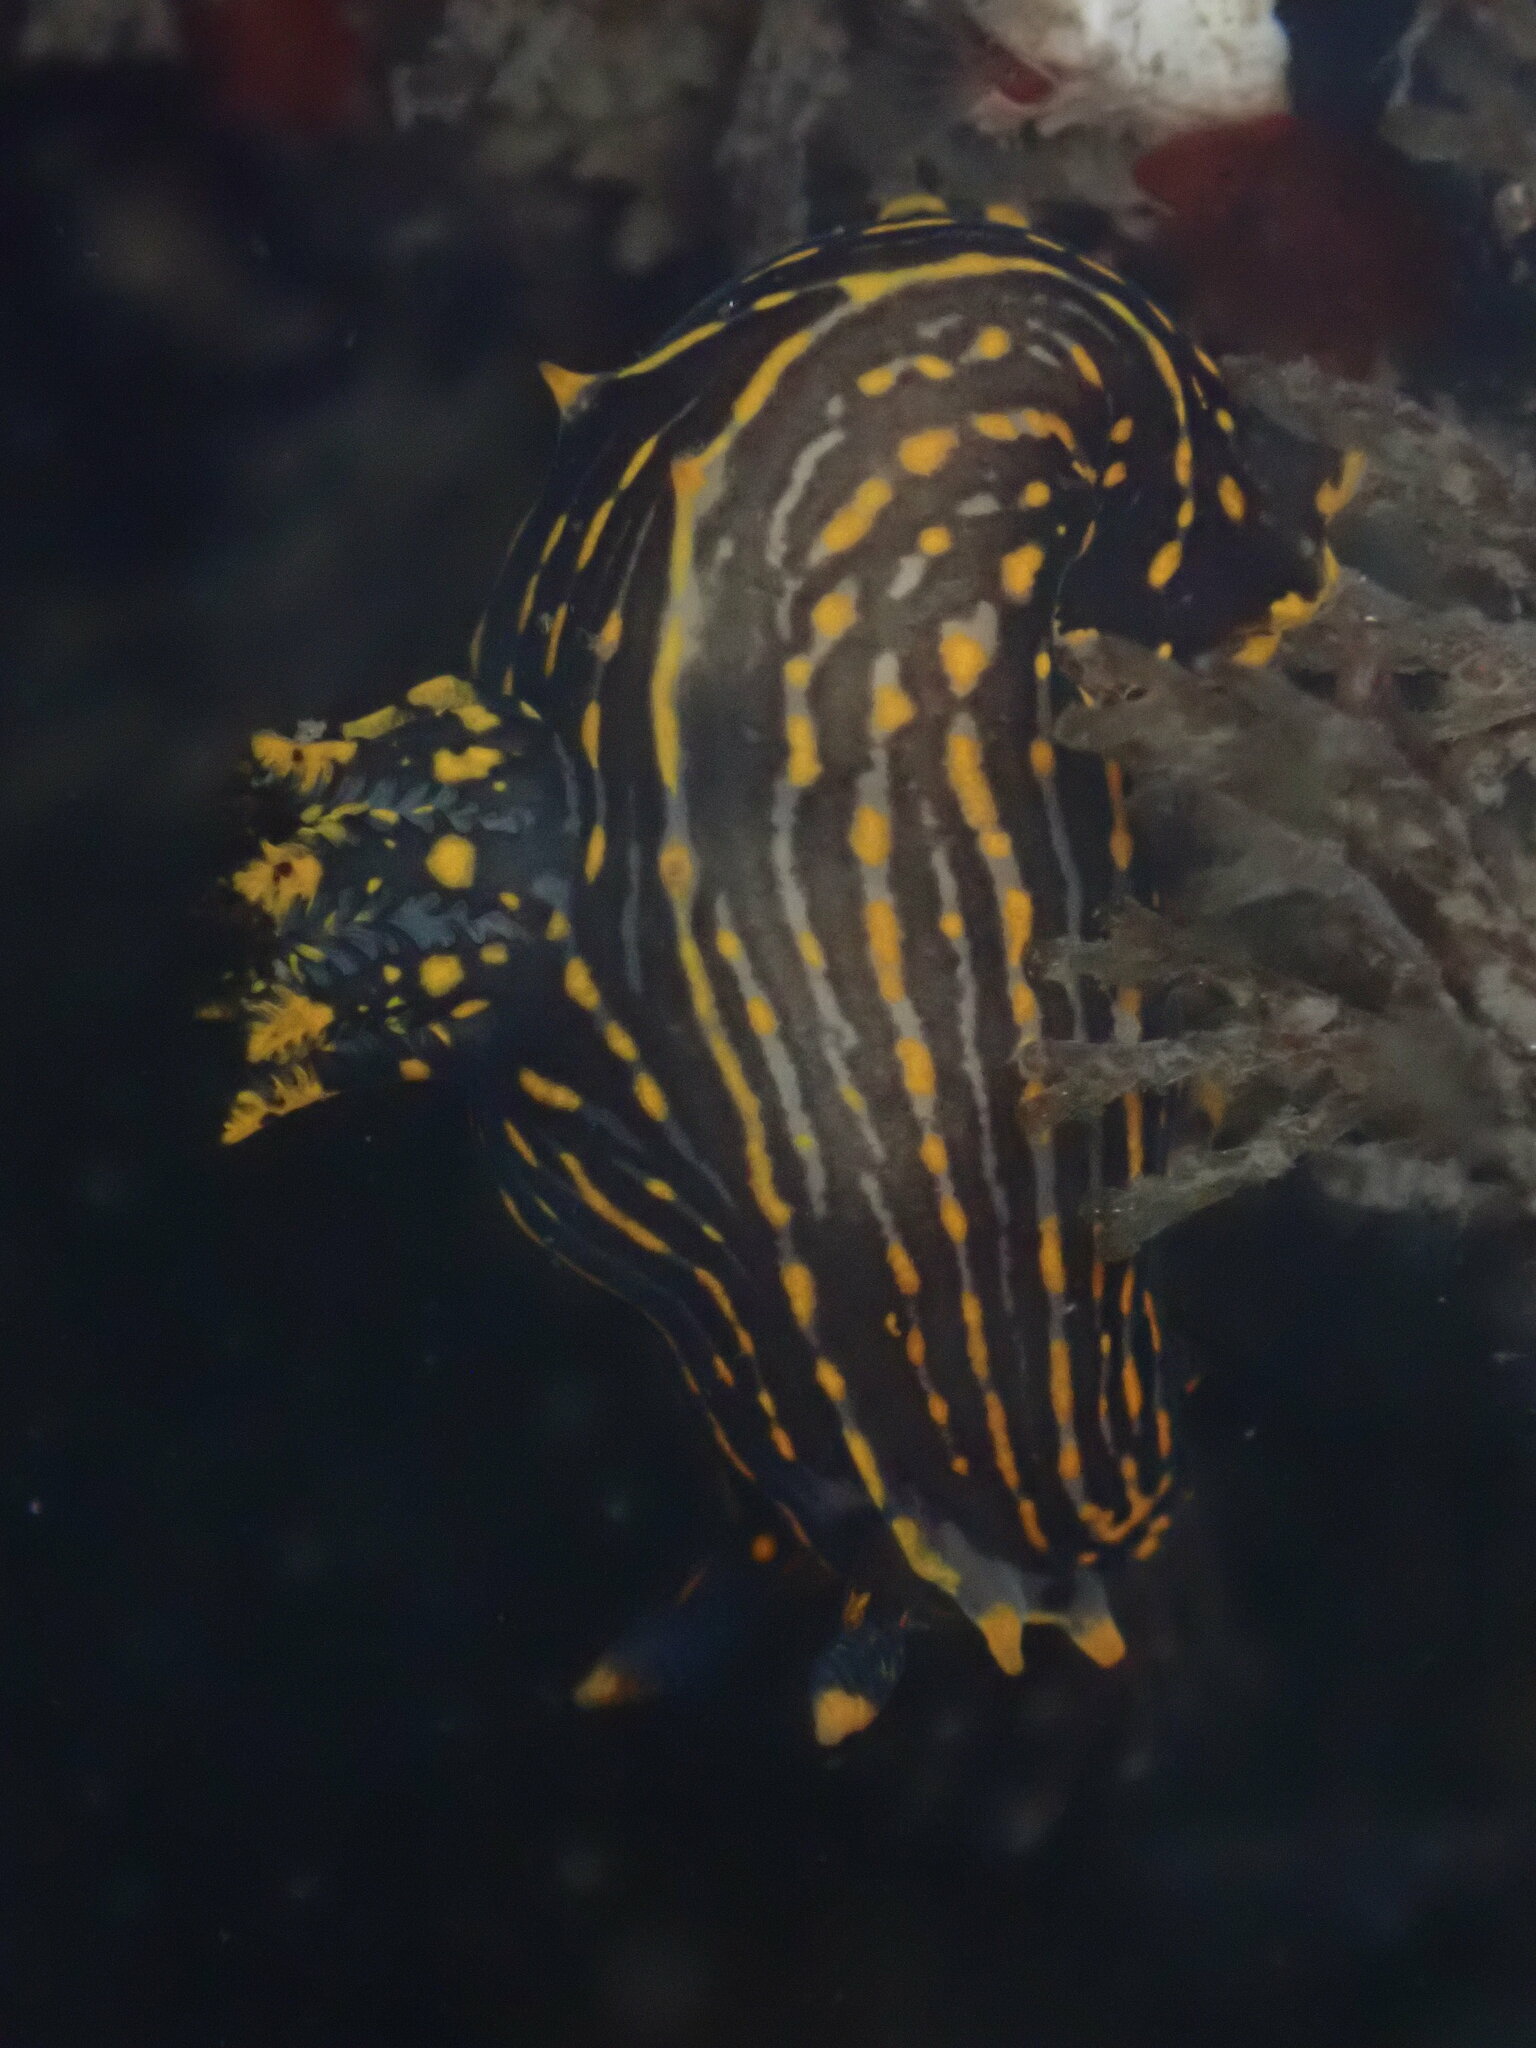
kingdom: Animalia
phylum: Mollusca
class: Gastropoda
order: Nudibranchia
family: Polyceridae
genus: Polycera
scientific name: Polycera atra
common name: Orange-spike polycera
